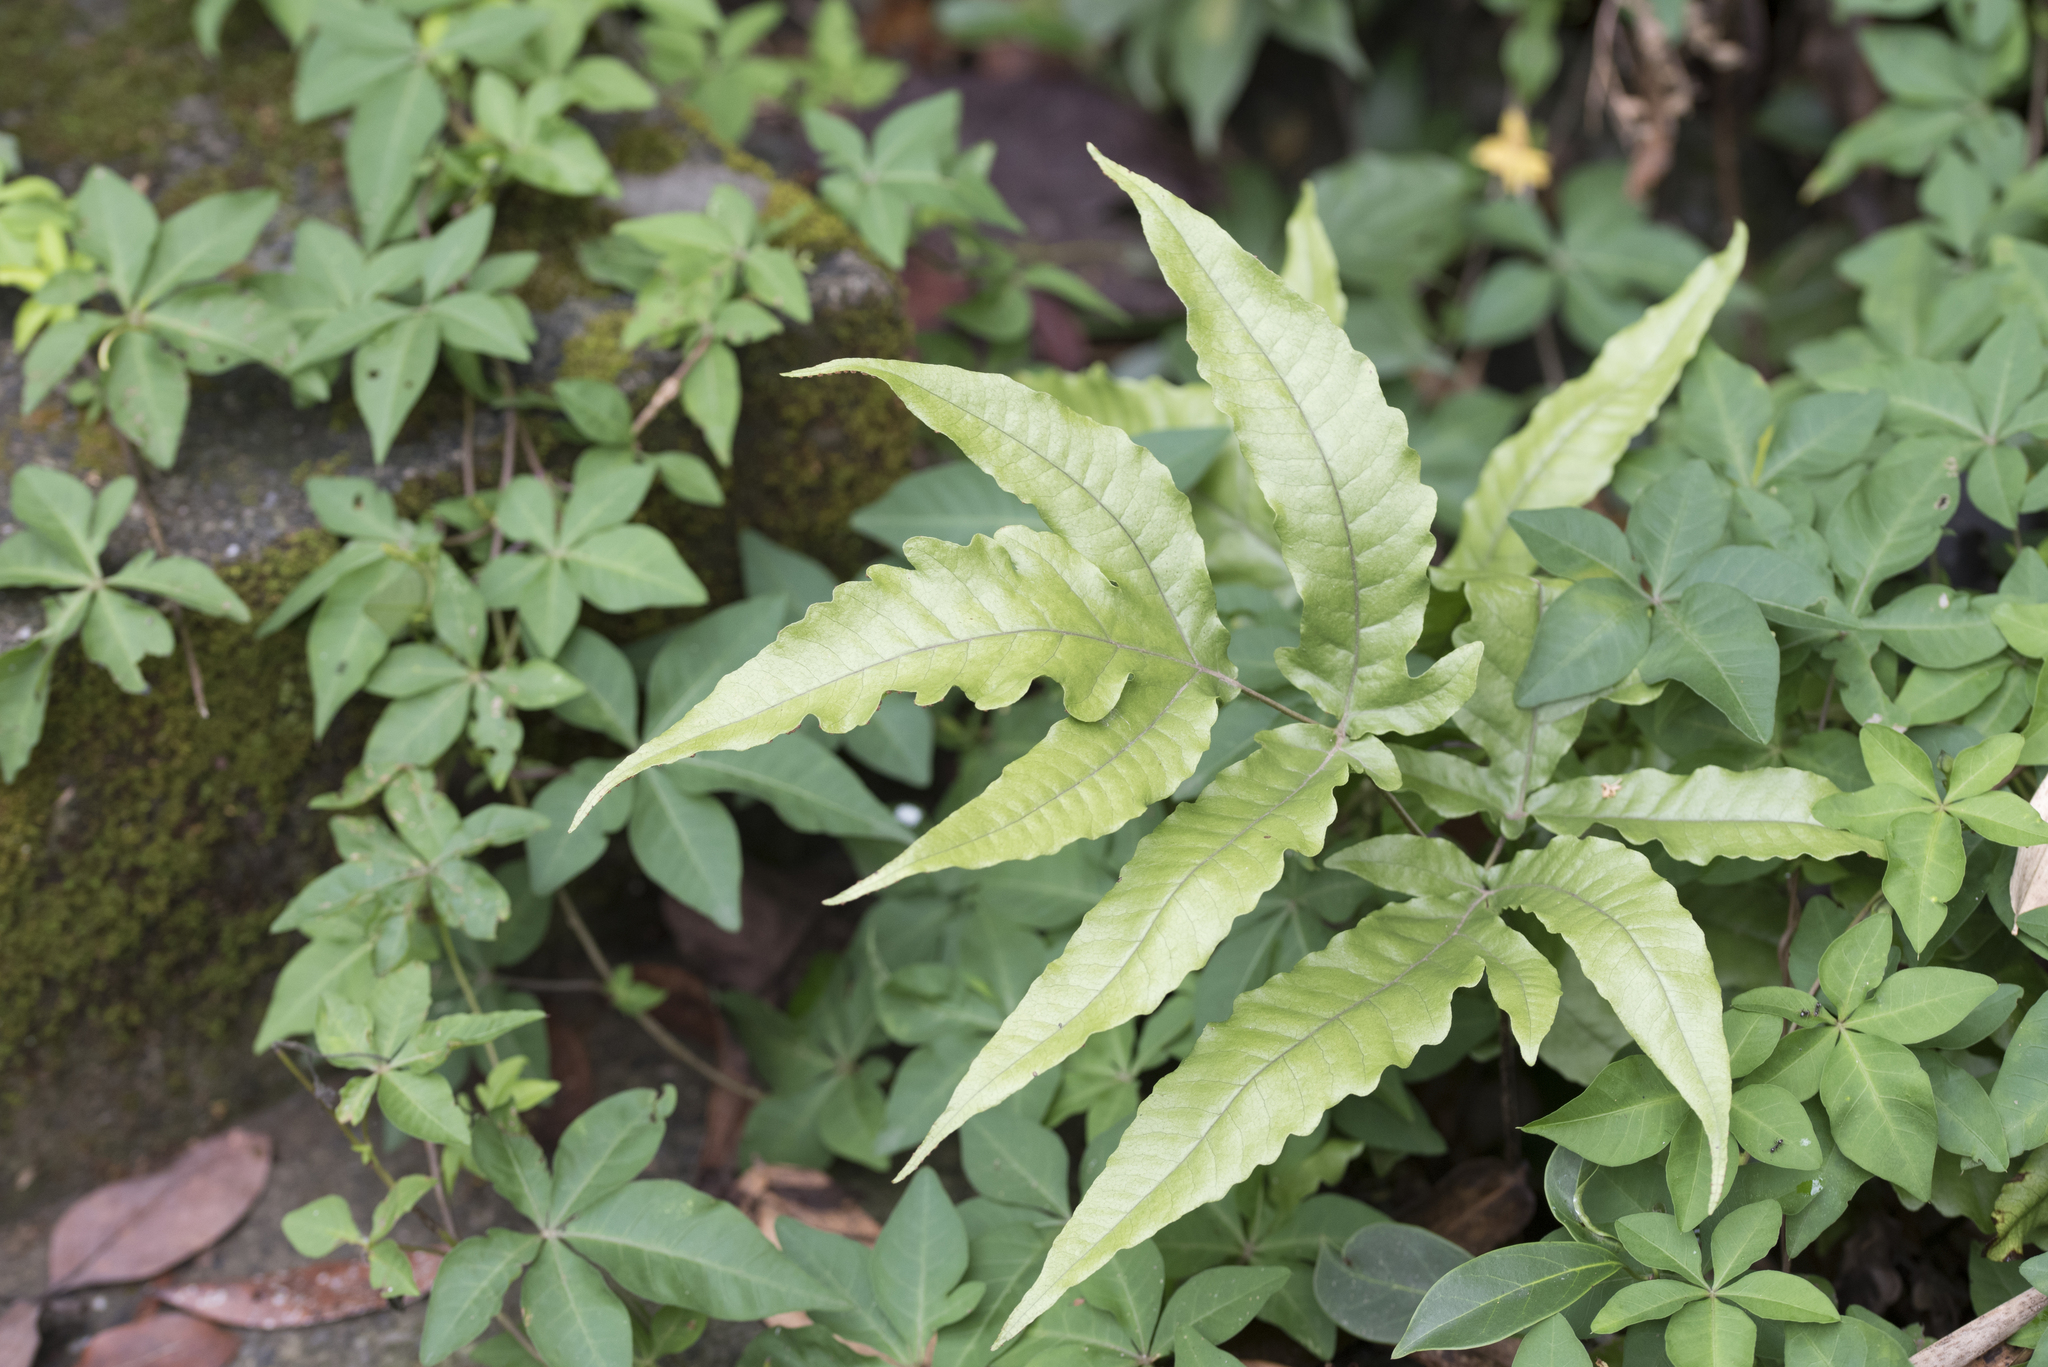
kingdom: Plantae
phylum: Tracheophyta
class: Polypodiopsida
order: Polypodiales
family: Tectariaceae
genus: Tectaria
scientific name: Tectaria subtriphylla
